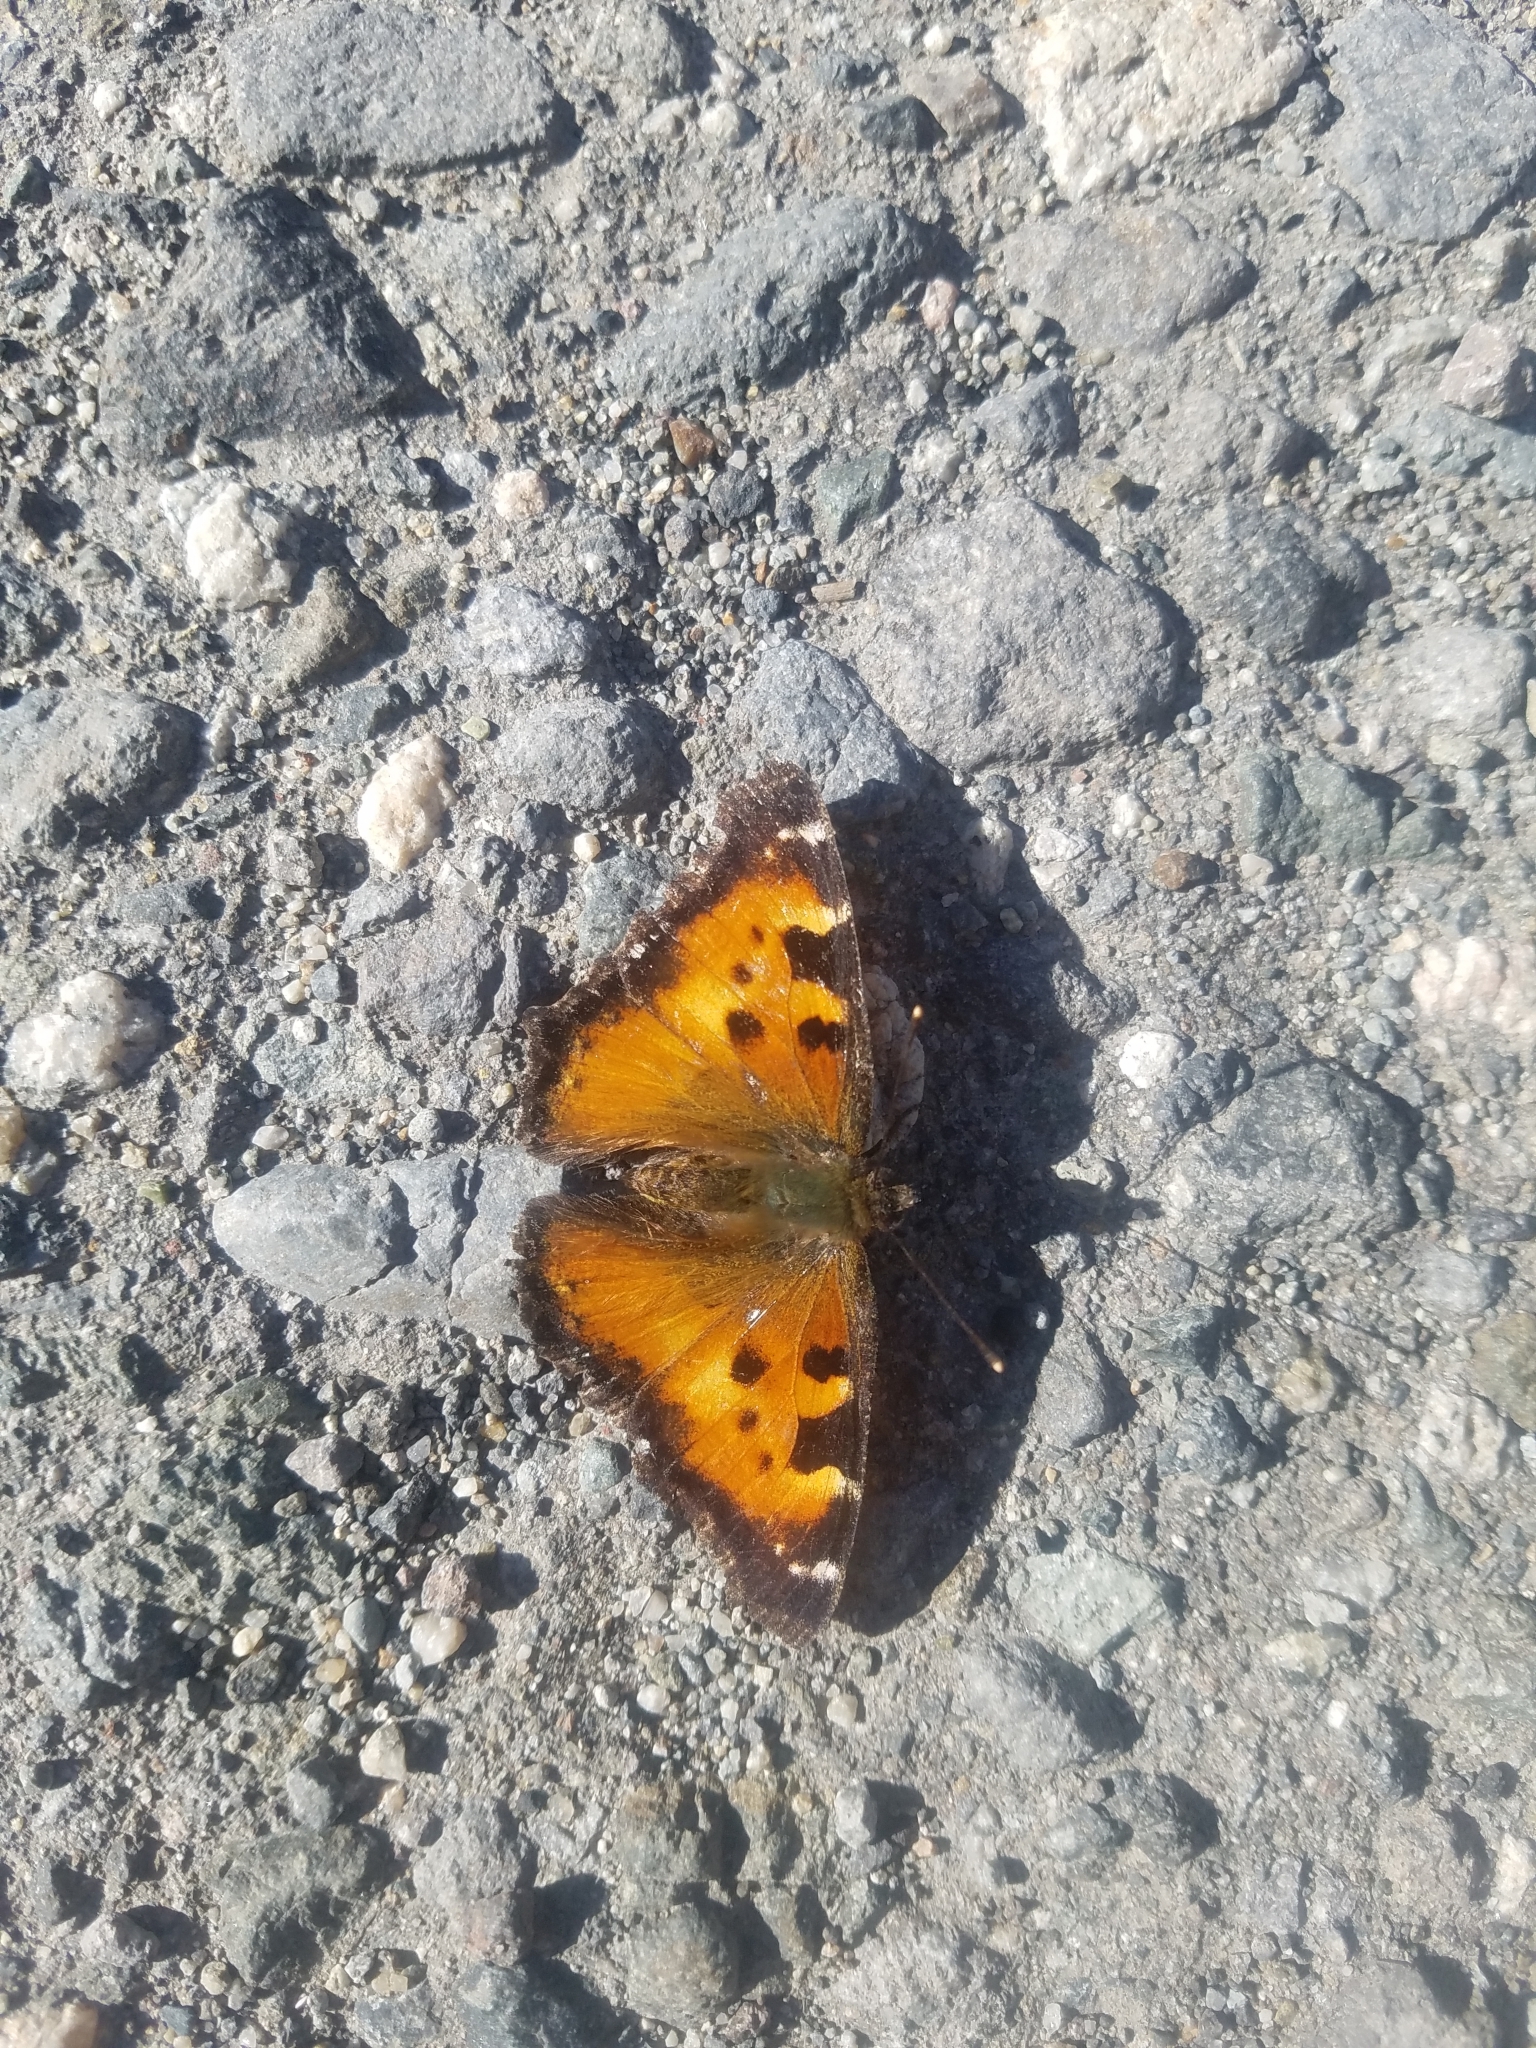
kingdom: Animalia
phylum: Arthropoda
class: Insecta
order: Lepidoptera
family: Nymphalidae
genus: Nymphalis
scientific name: Nymphalis californica
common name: California tortoiseshell
